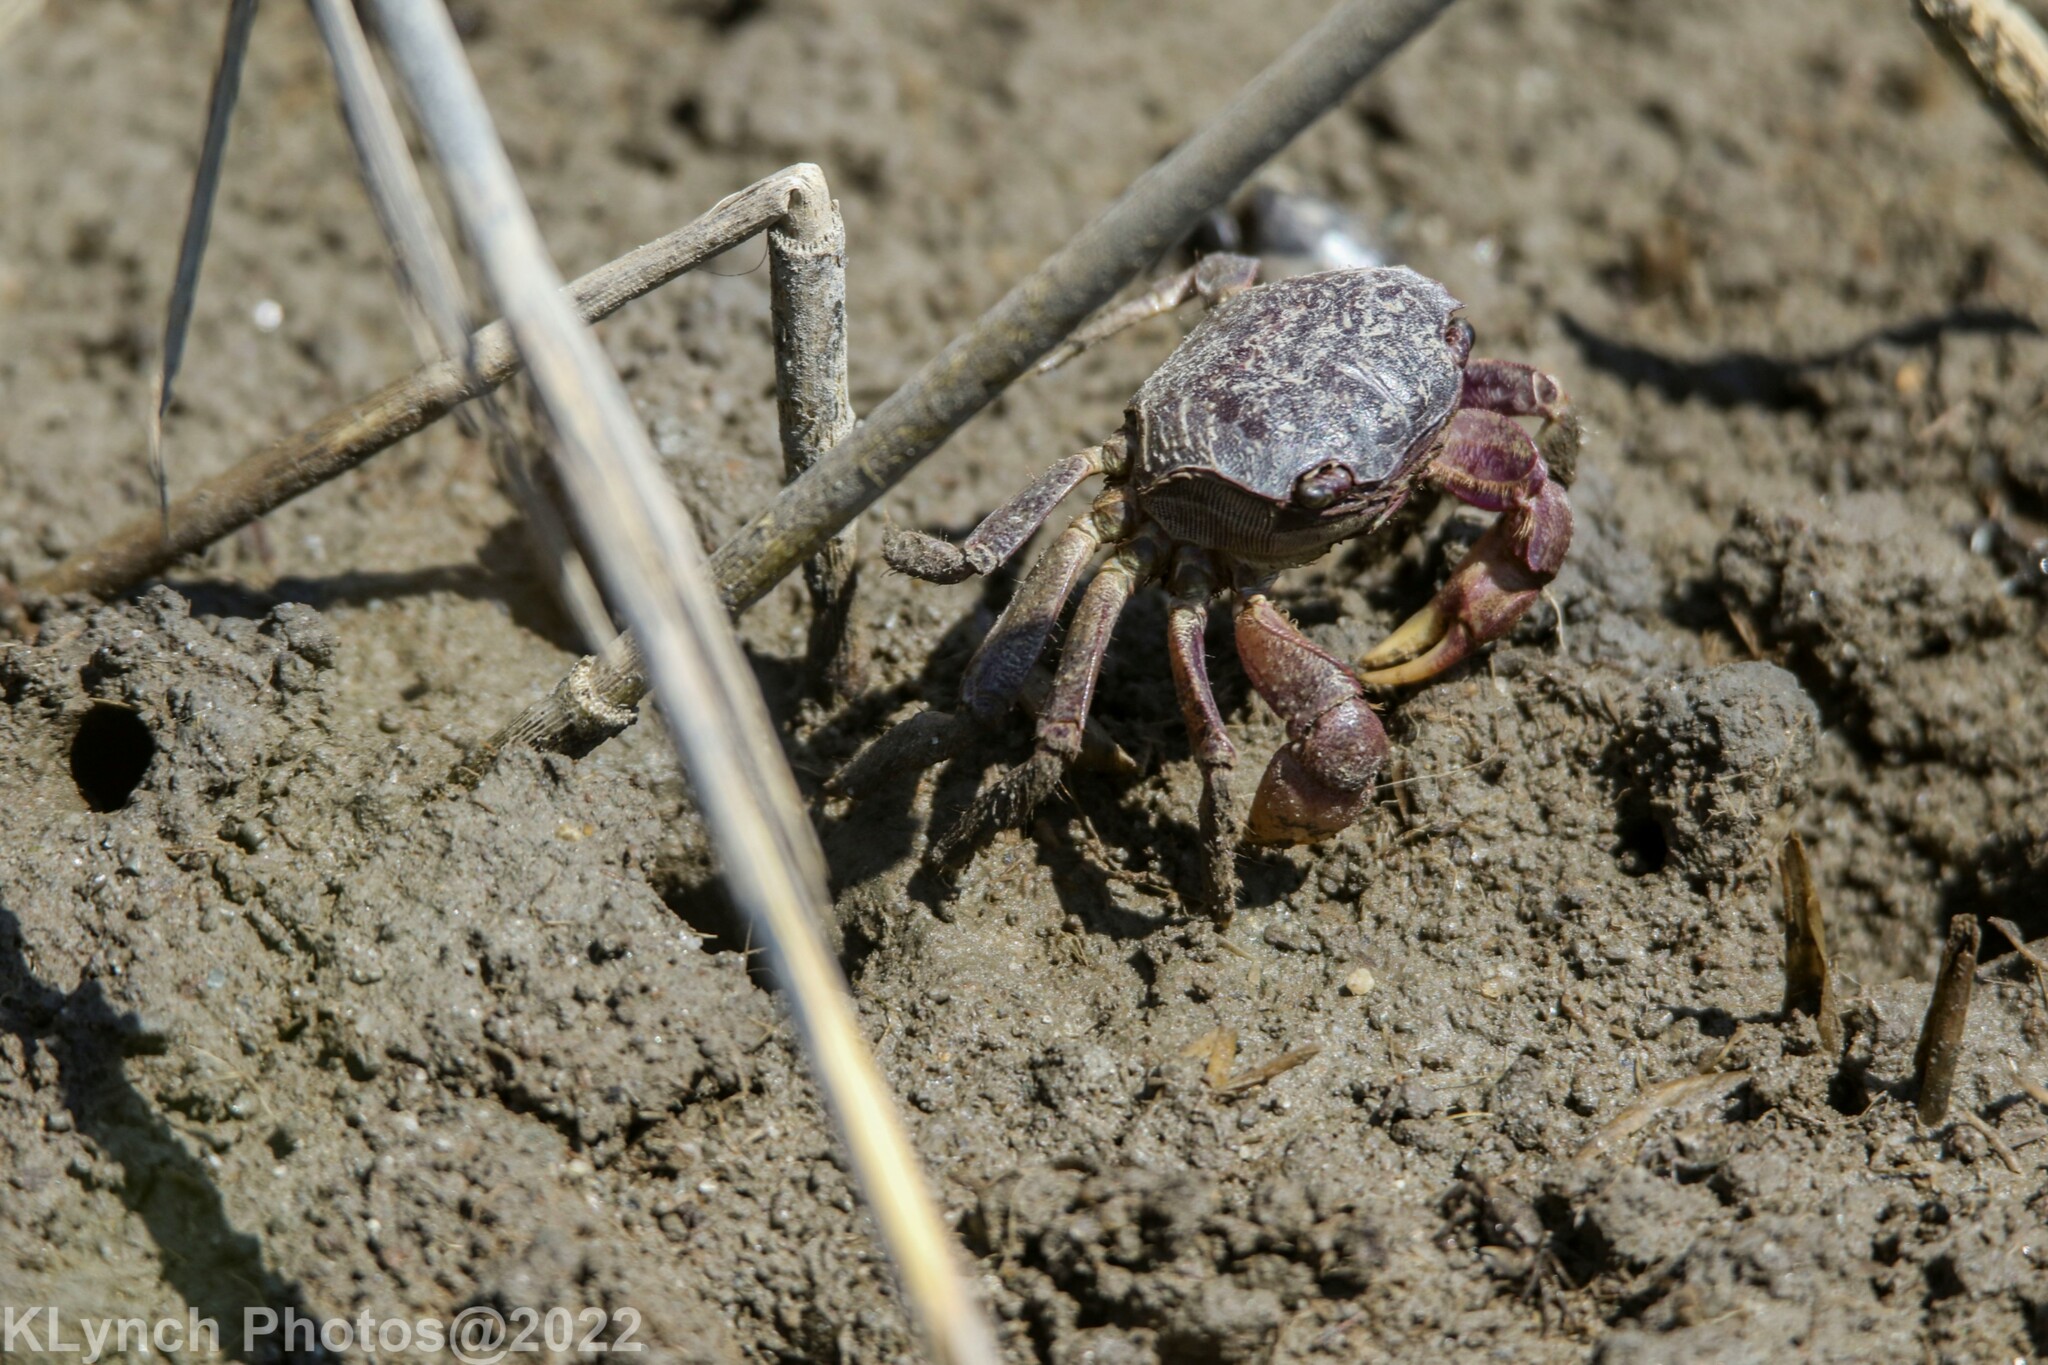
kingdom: Animalia
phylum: Arthropoda
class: Malacostraca
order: Decapoda
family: Sesarmidae
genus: Sesarma
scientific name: Sesarma reticulatum
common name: Heavy marsh crab
